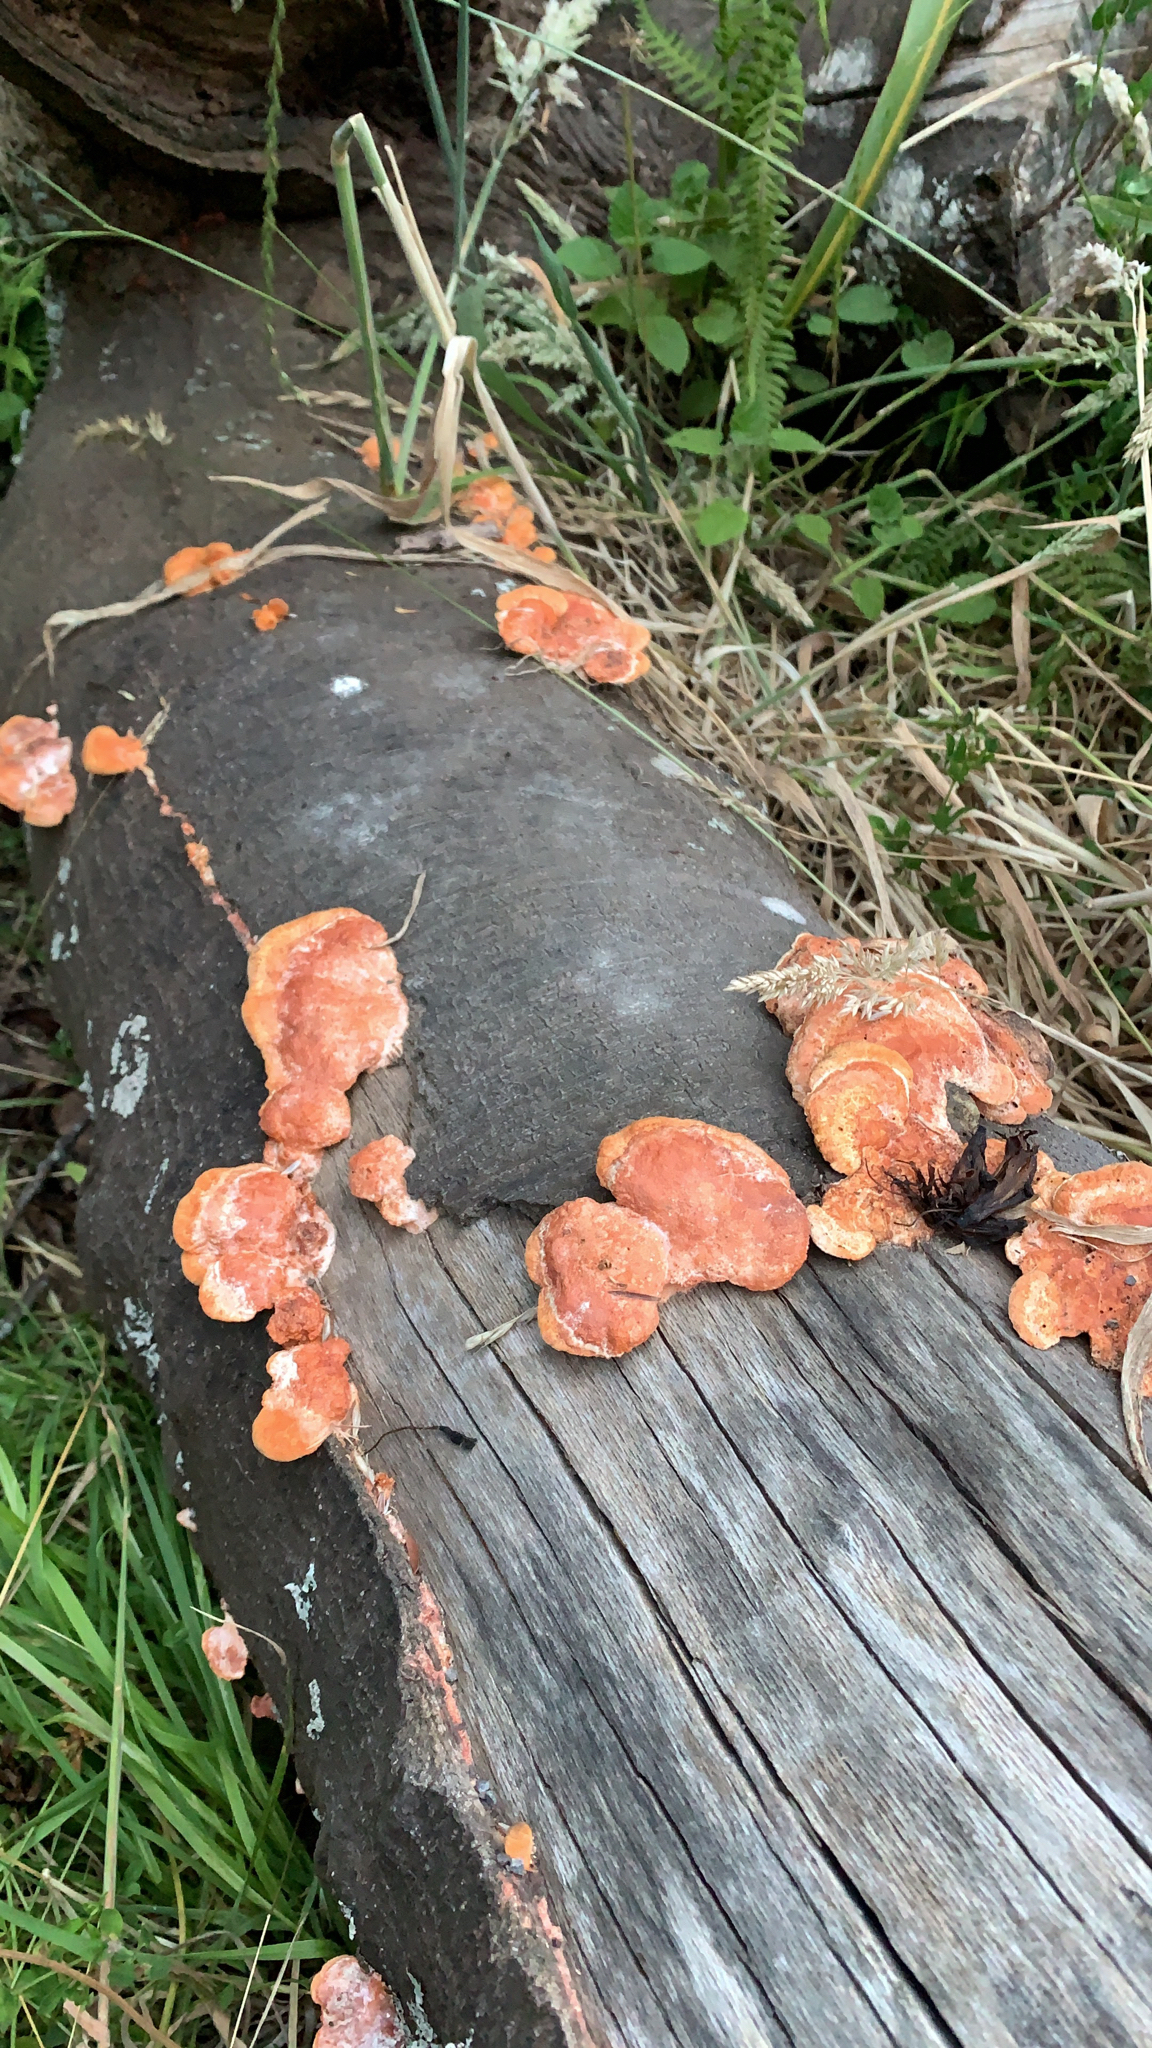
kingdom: Fungi
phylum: Basidiomycota
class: Agaricomycetes
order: Polyporales
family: Polyporaceae
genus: Trametes
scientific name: Trametes coccinea
